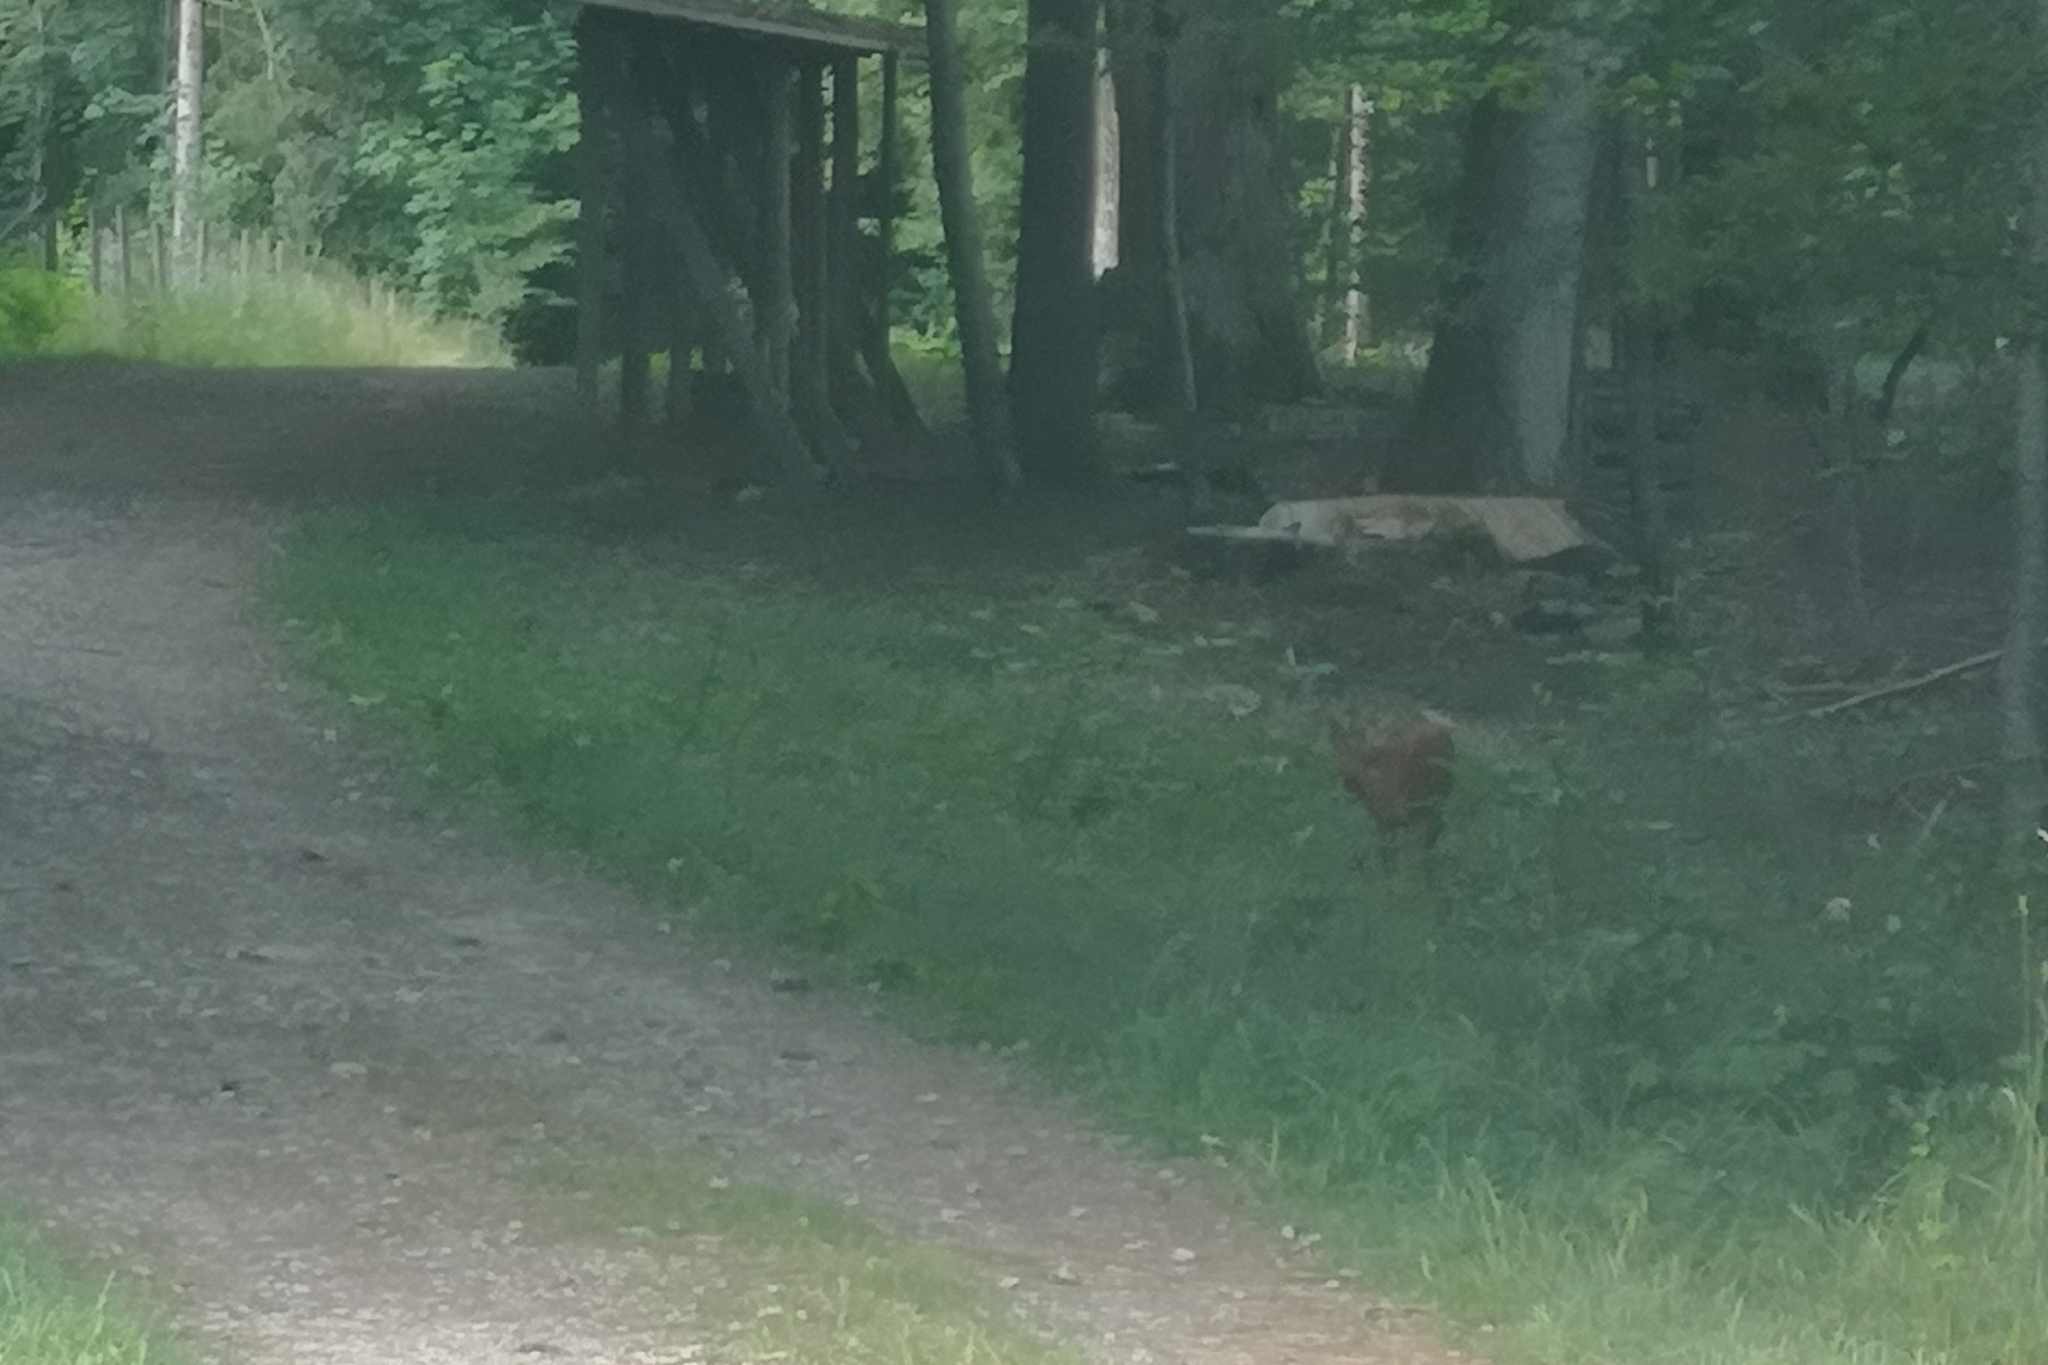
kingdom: Animalia
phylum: Chordata
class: Mammalia
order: Artiodactyla
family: Cervidae
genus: Capreolus
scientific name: Capreolus capreolus
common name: Western roe deer
